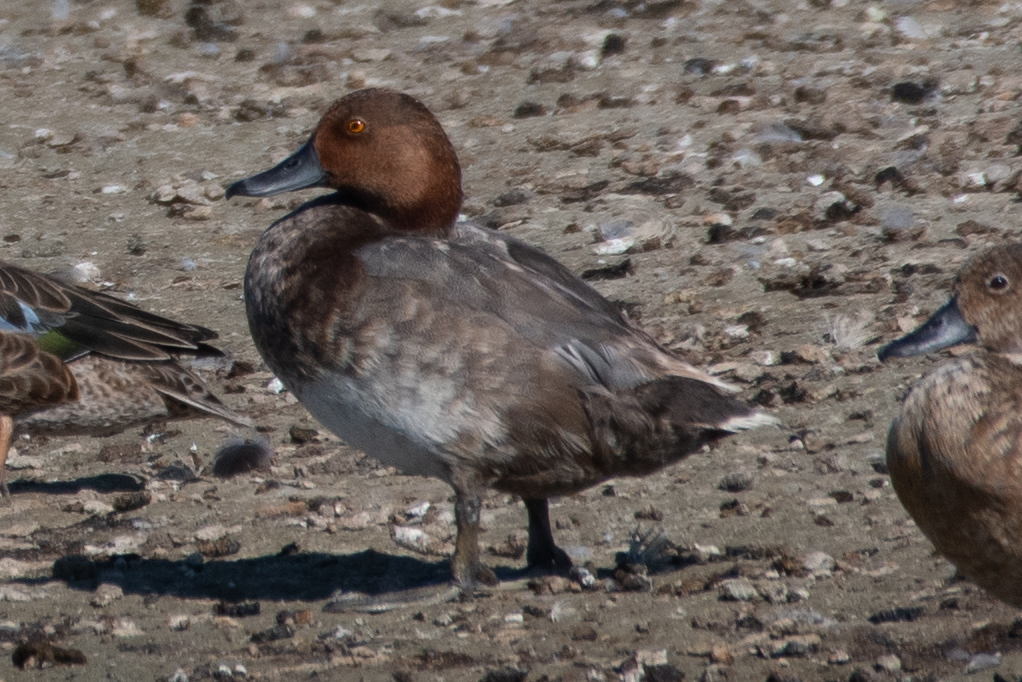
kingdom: Animalia
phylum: Chordata
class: Aves
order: Anseriformes
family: Anatidae
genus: Aythya
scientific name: Aythya americana
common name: Redhead
